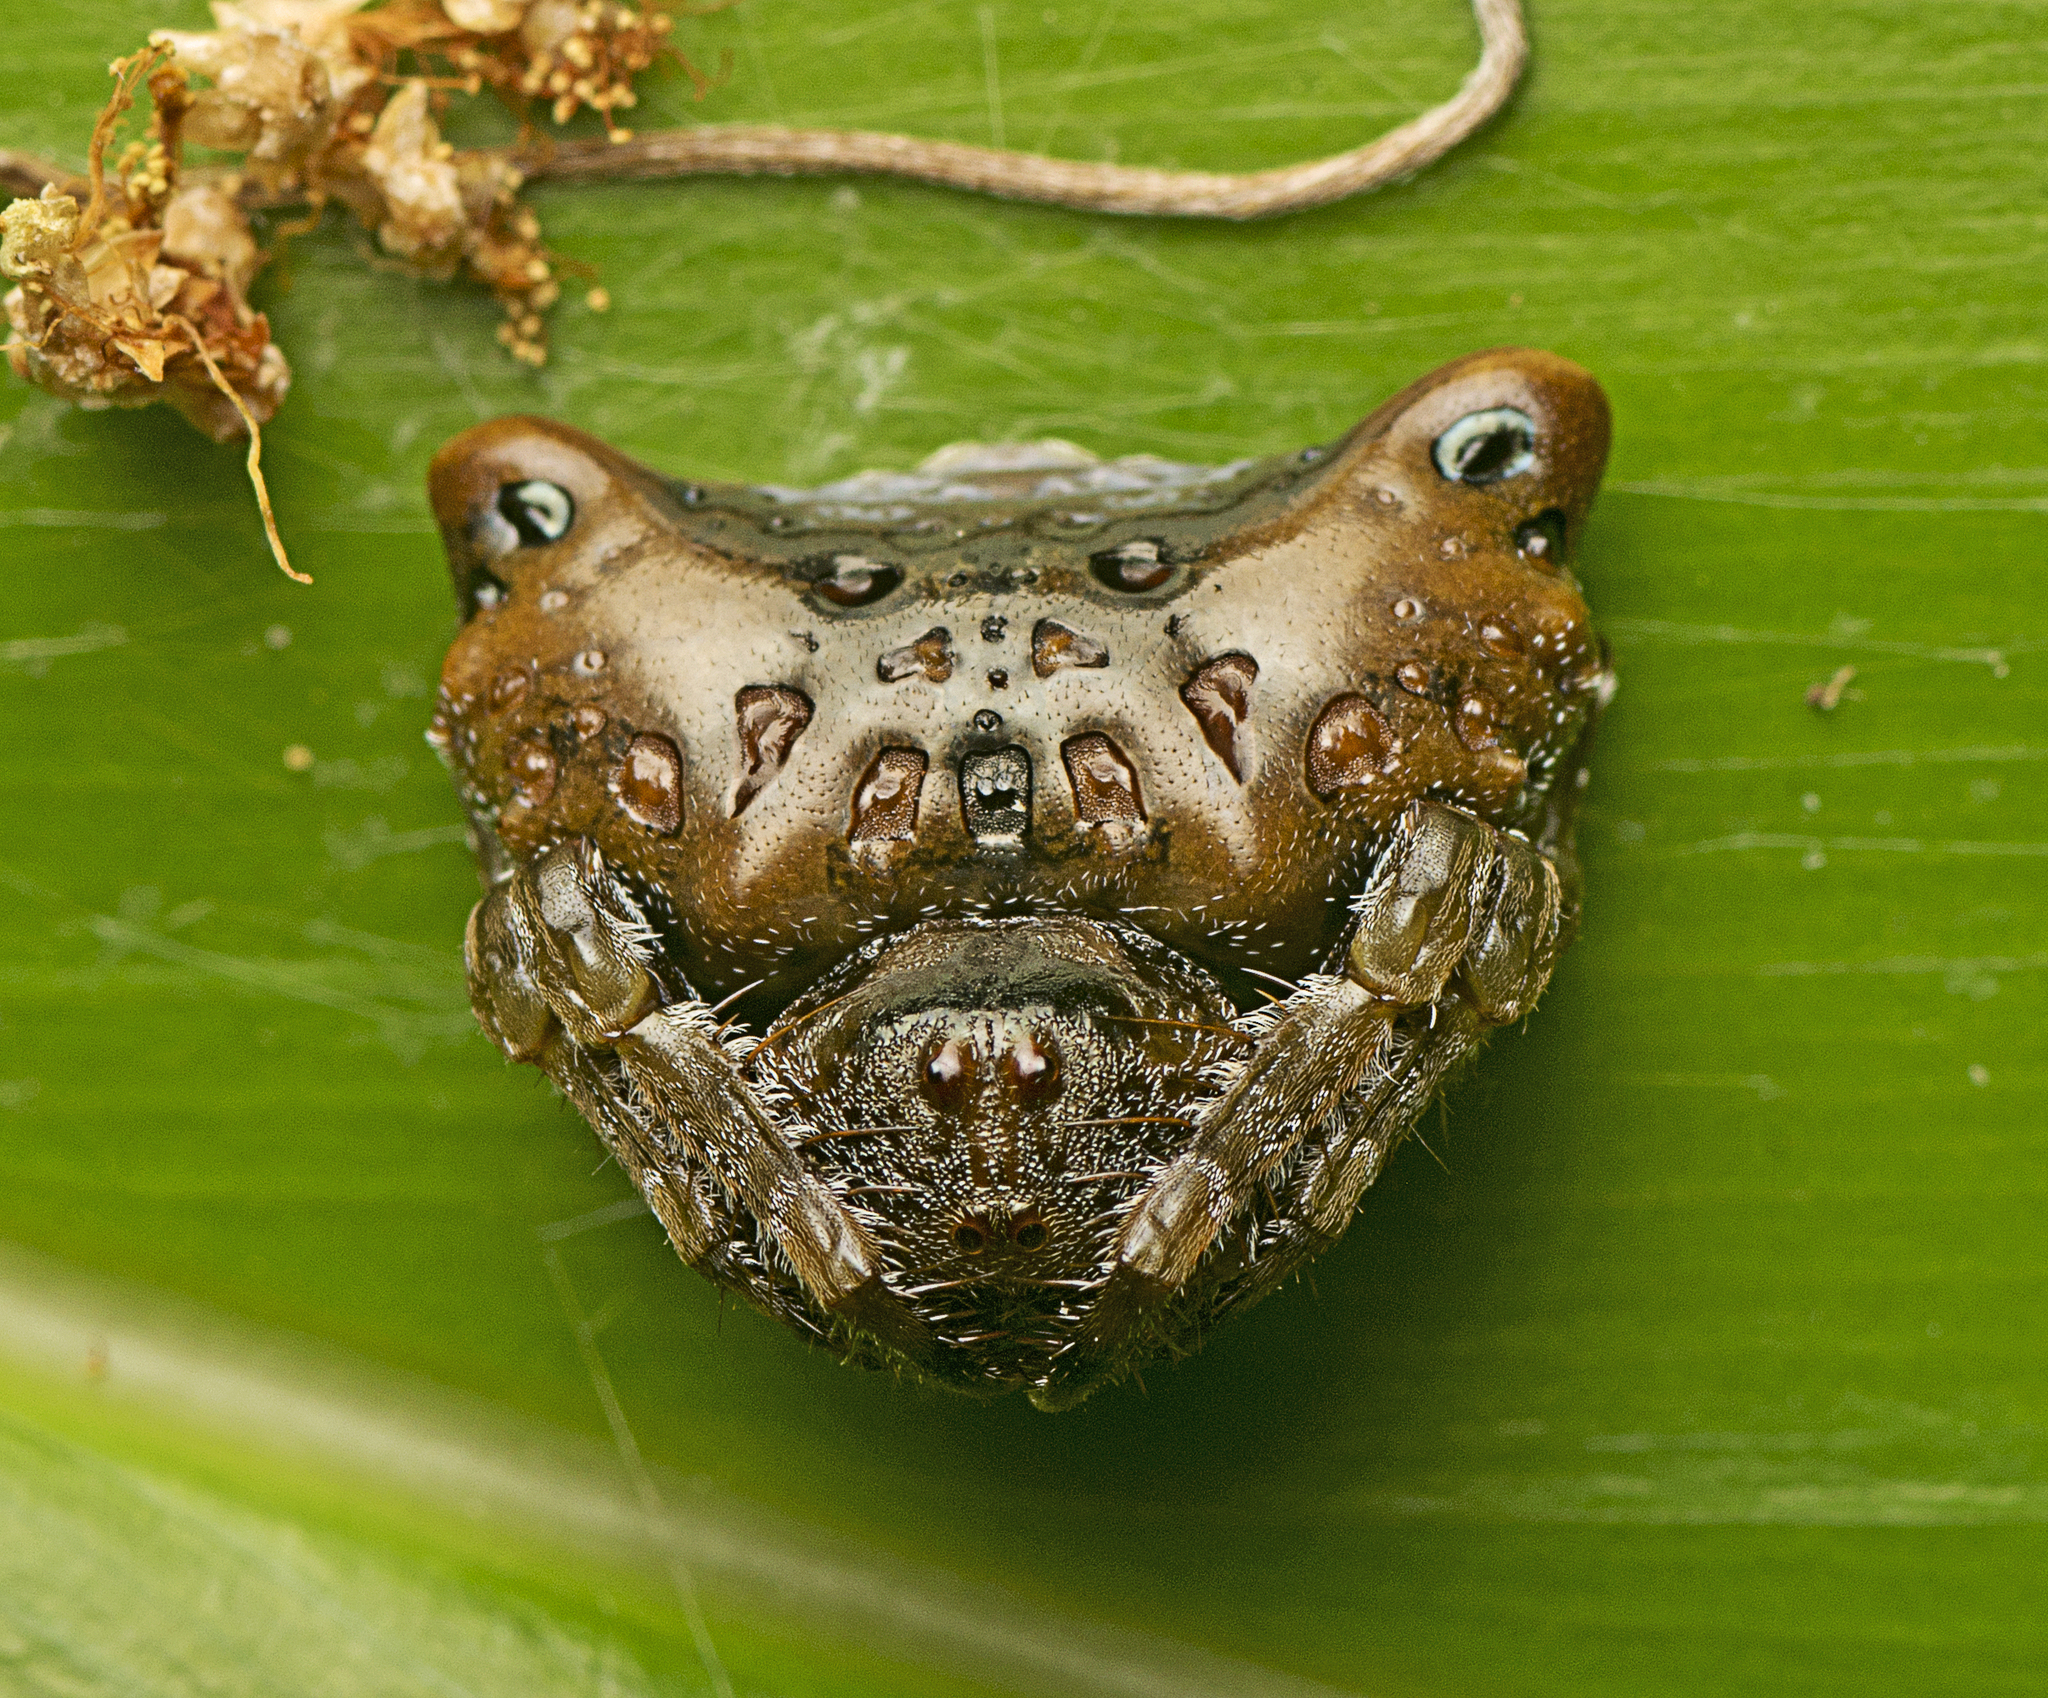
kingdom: Animalia
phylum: Arthropoda
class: Arachnida
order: Araneae
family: Arkyidae
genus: Arkys
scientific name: Arkys curtulus
